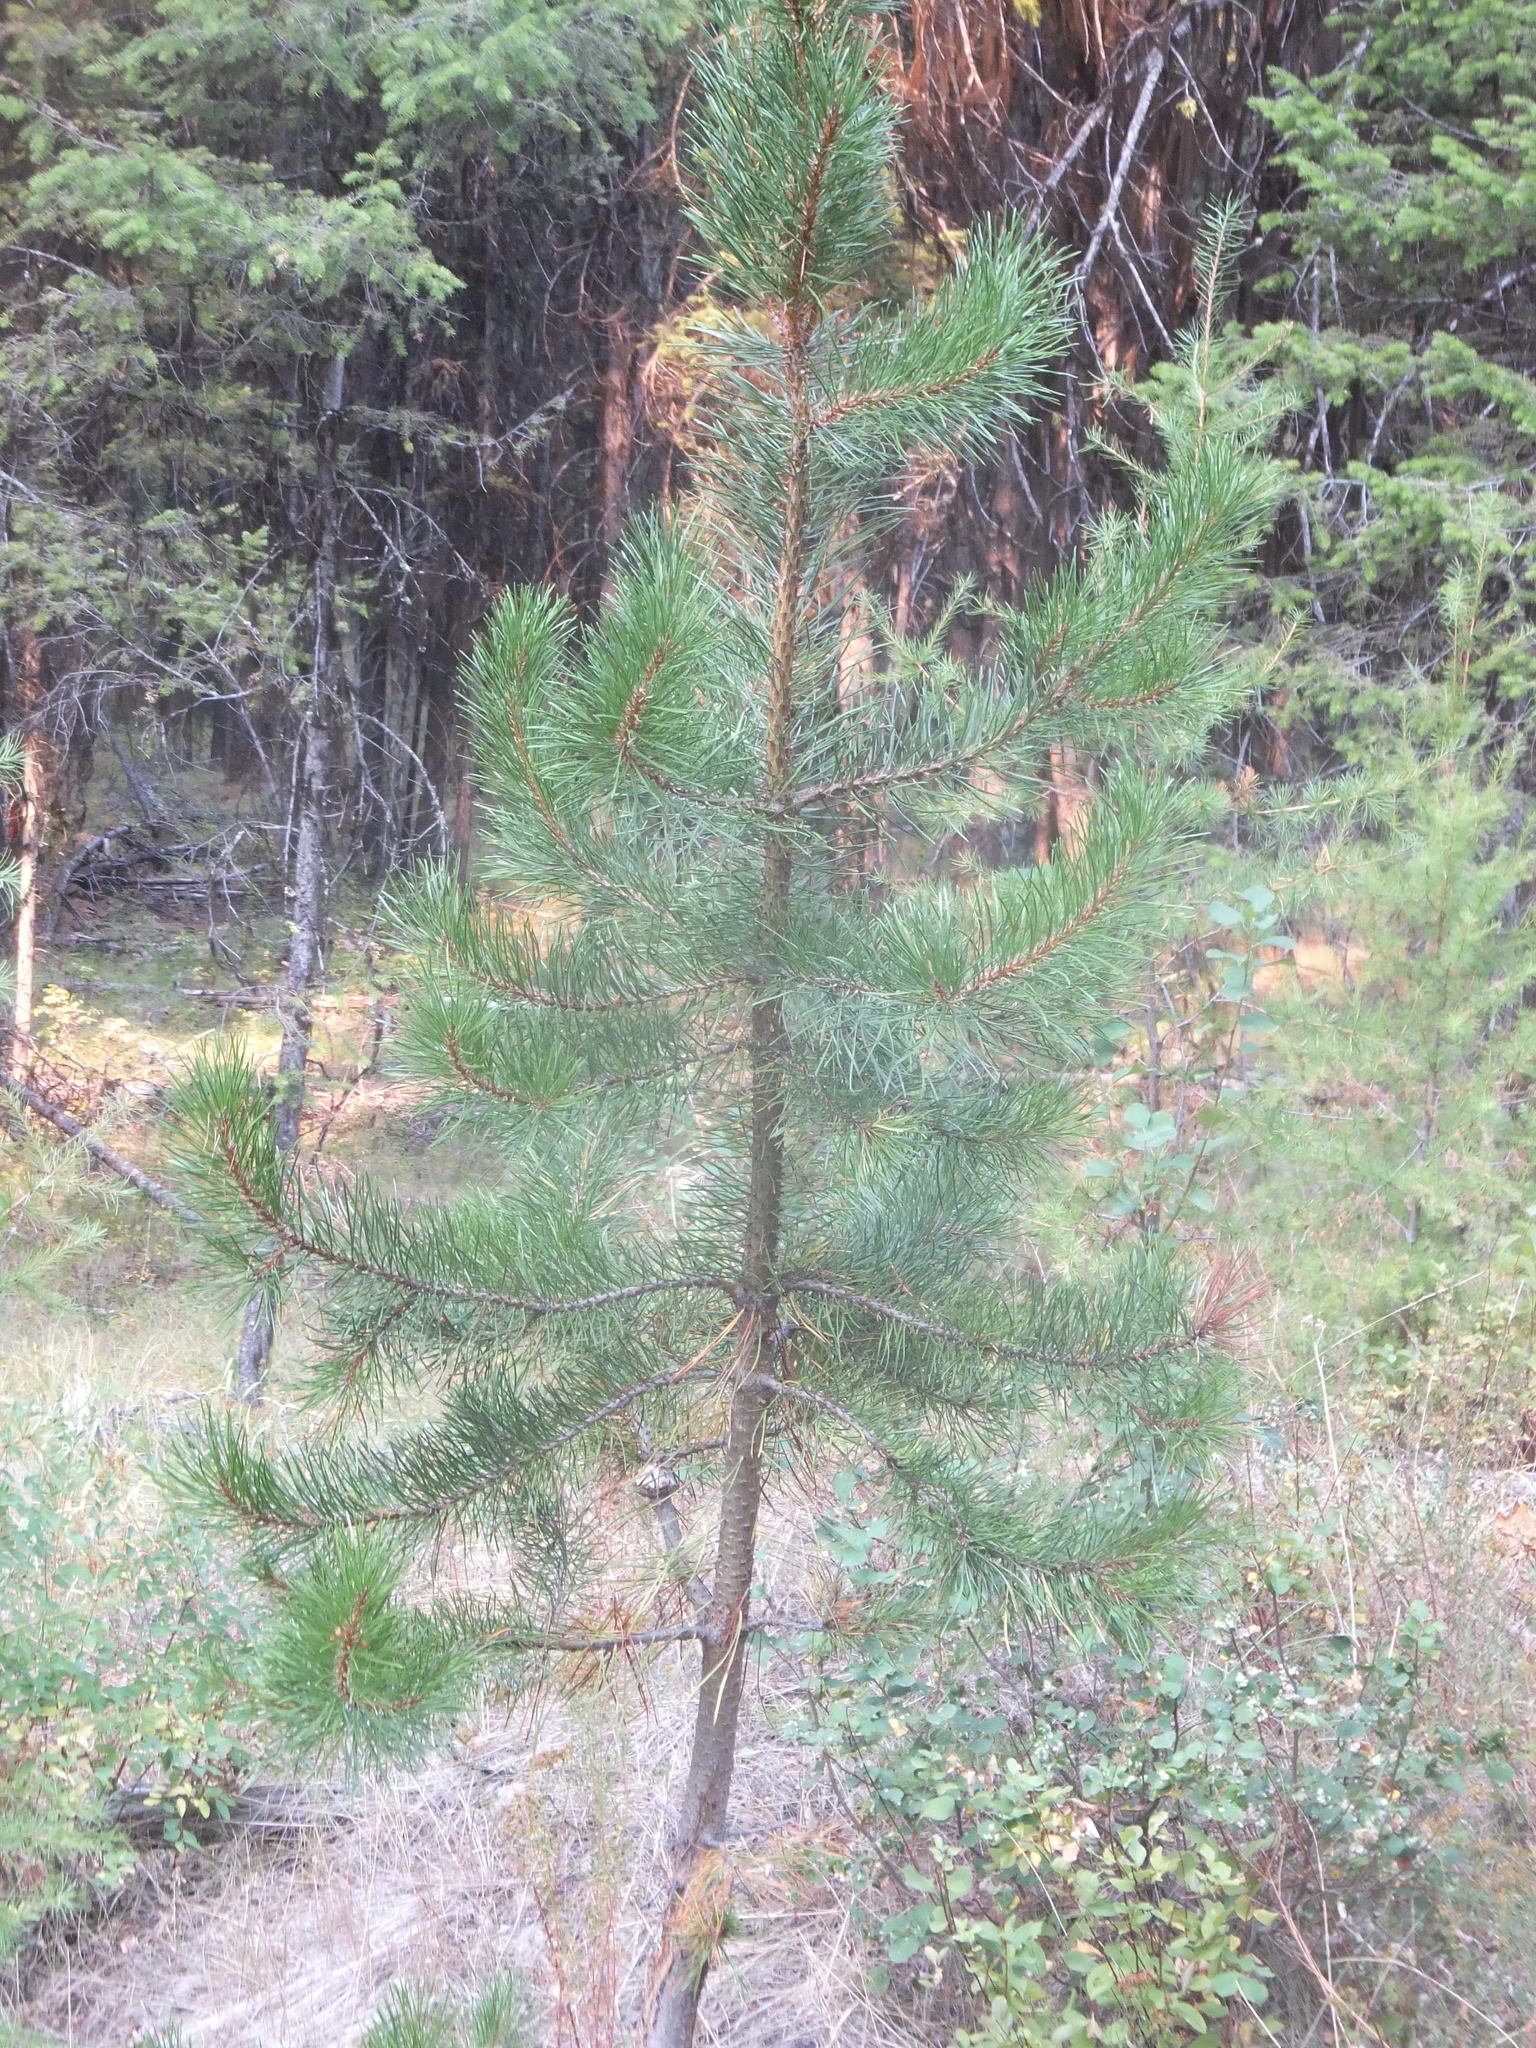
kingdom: Plantae
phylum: Tracheophyta
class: Pinopsida
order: Pinales
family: Pinaceae
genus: Pinus
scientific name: Pinus contorta
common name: Lodgepole pine
